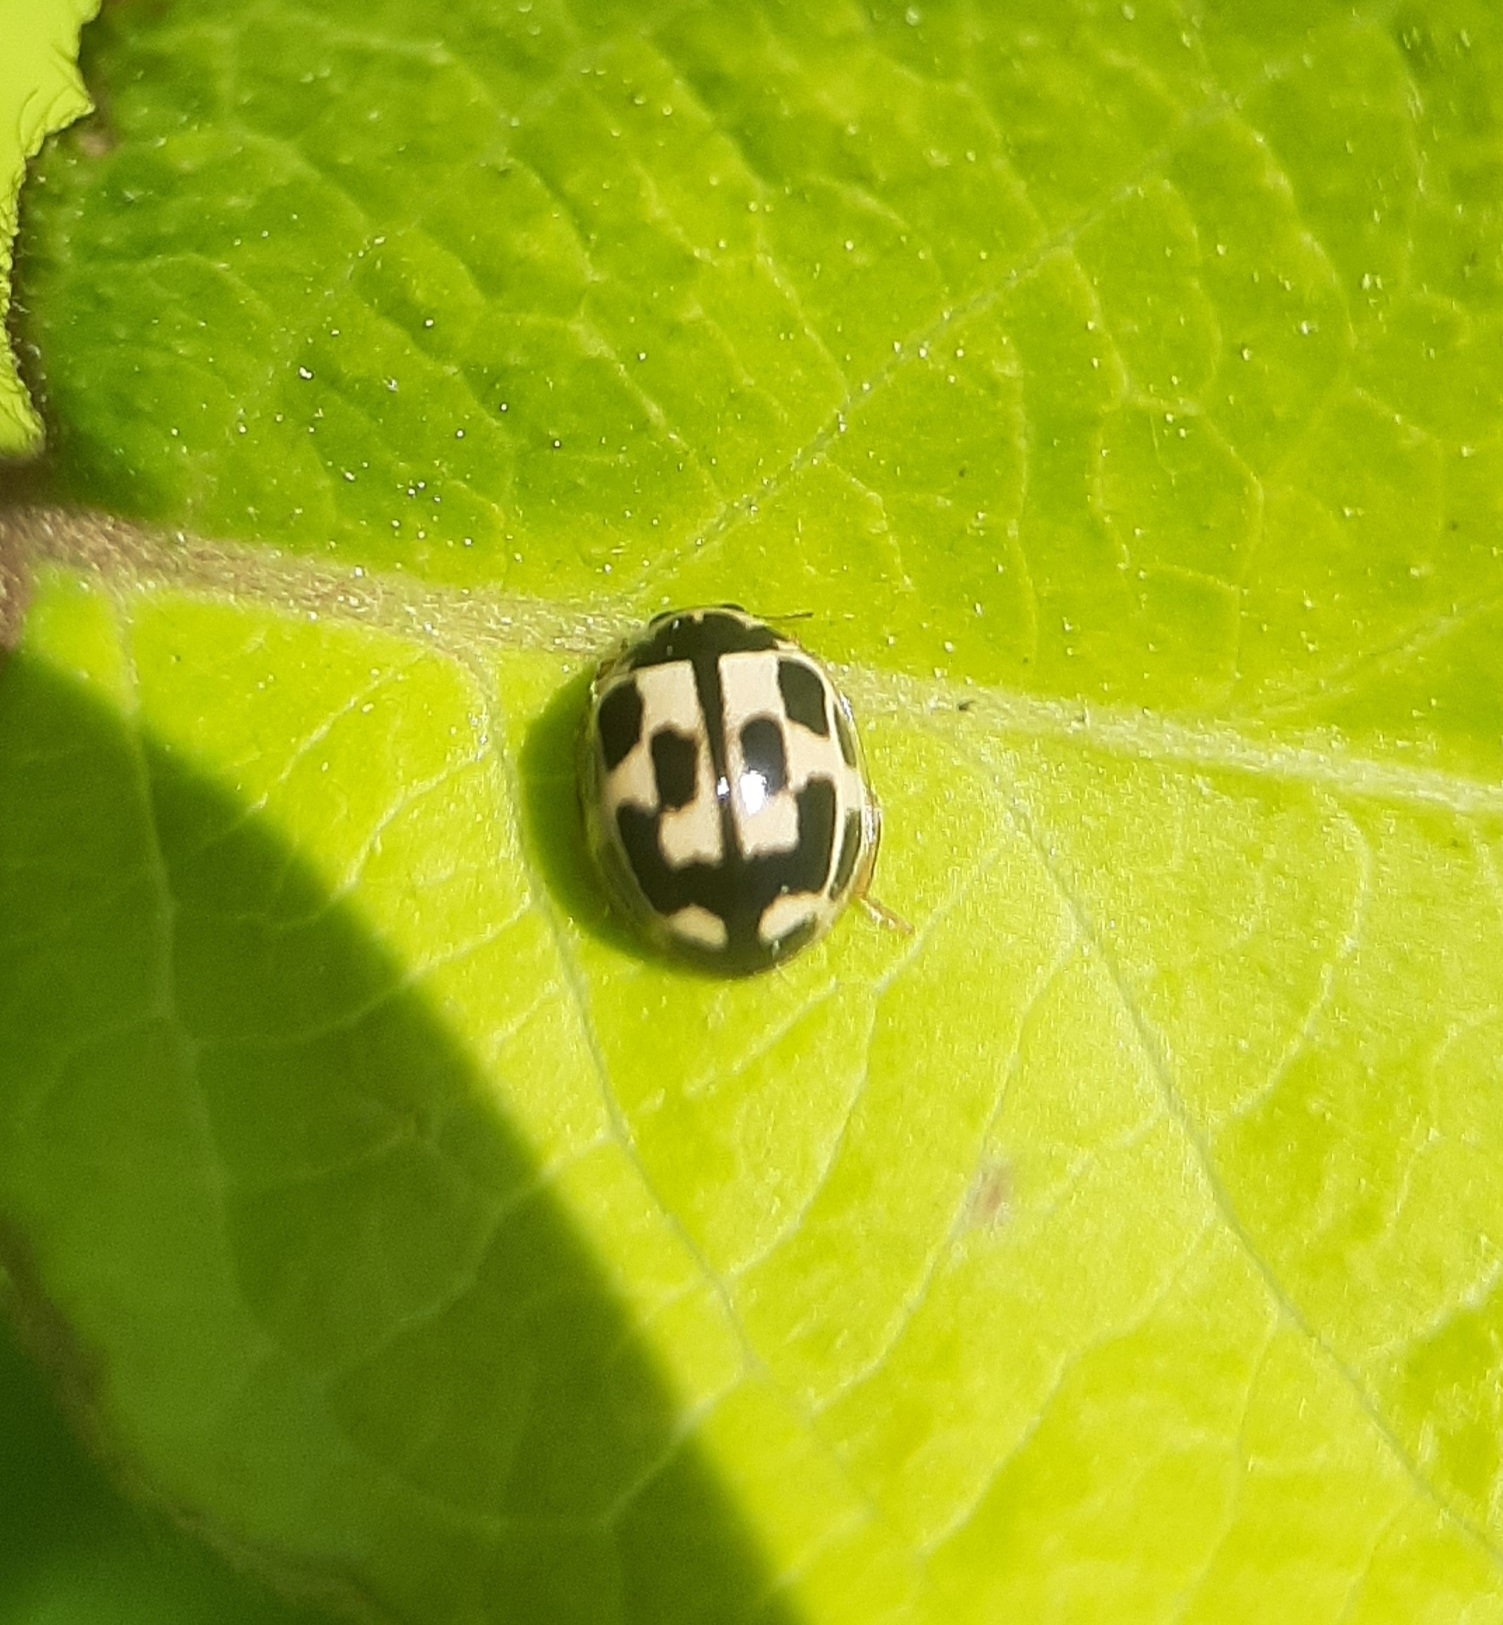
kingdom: Animalia
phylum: Arthropoda
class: Insecta
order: Coleoptera
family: Coccinellidae
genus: Propylaea
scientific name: Propylaea quatuordecimpunctata
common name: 14-spotted ladybird beetle
